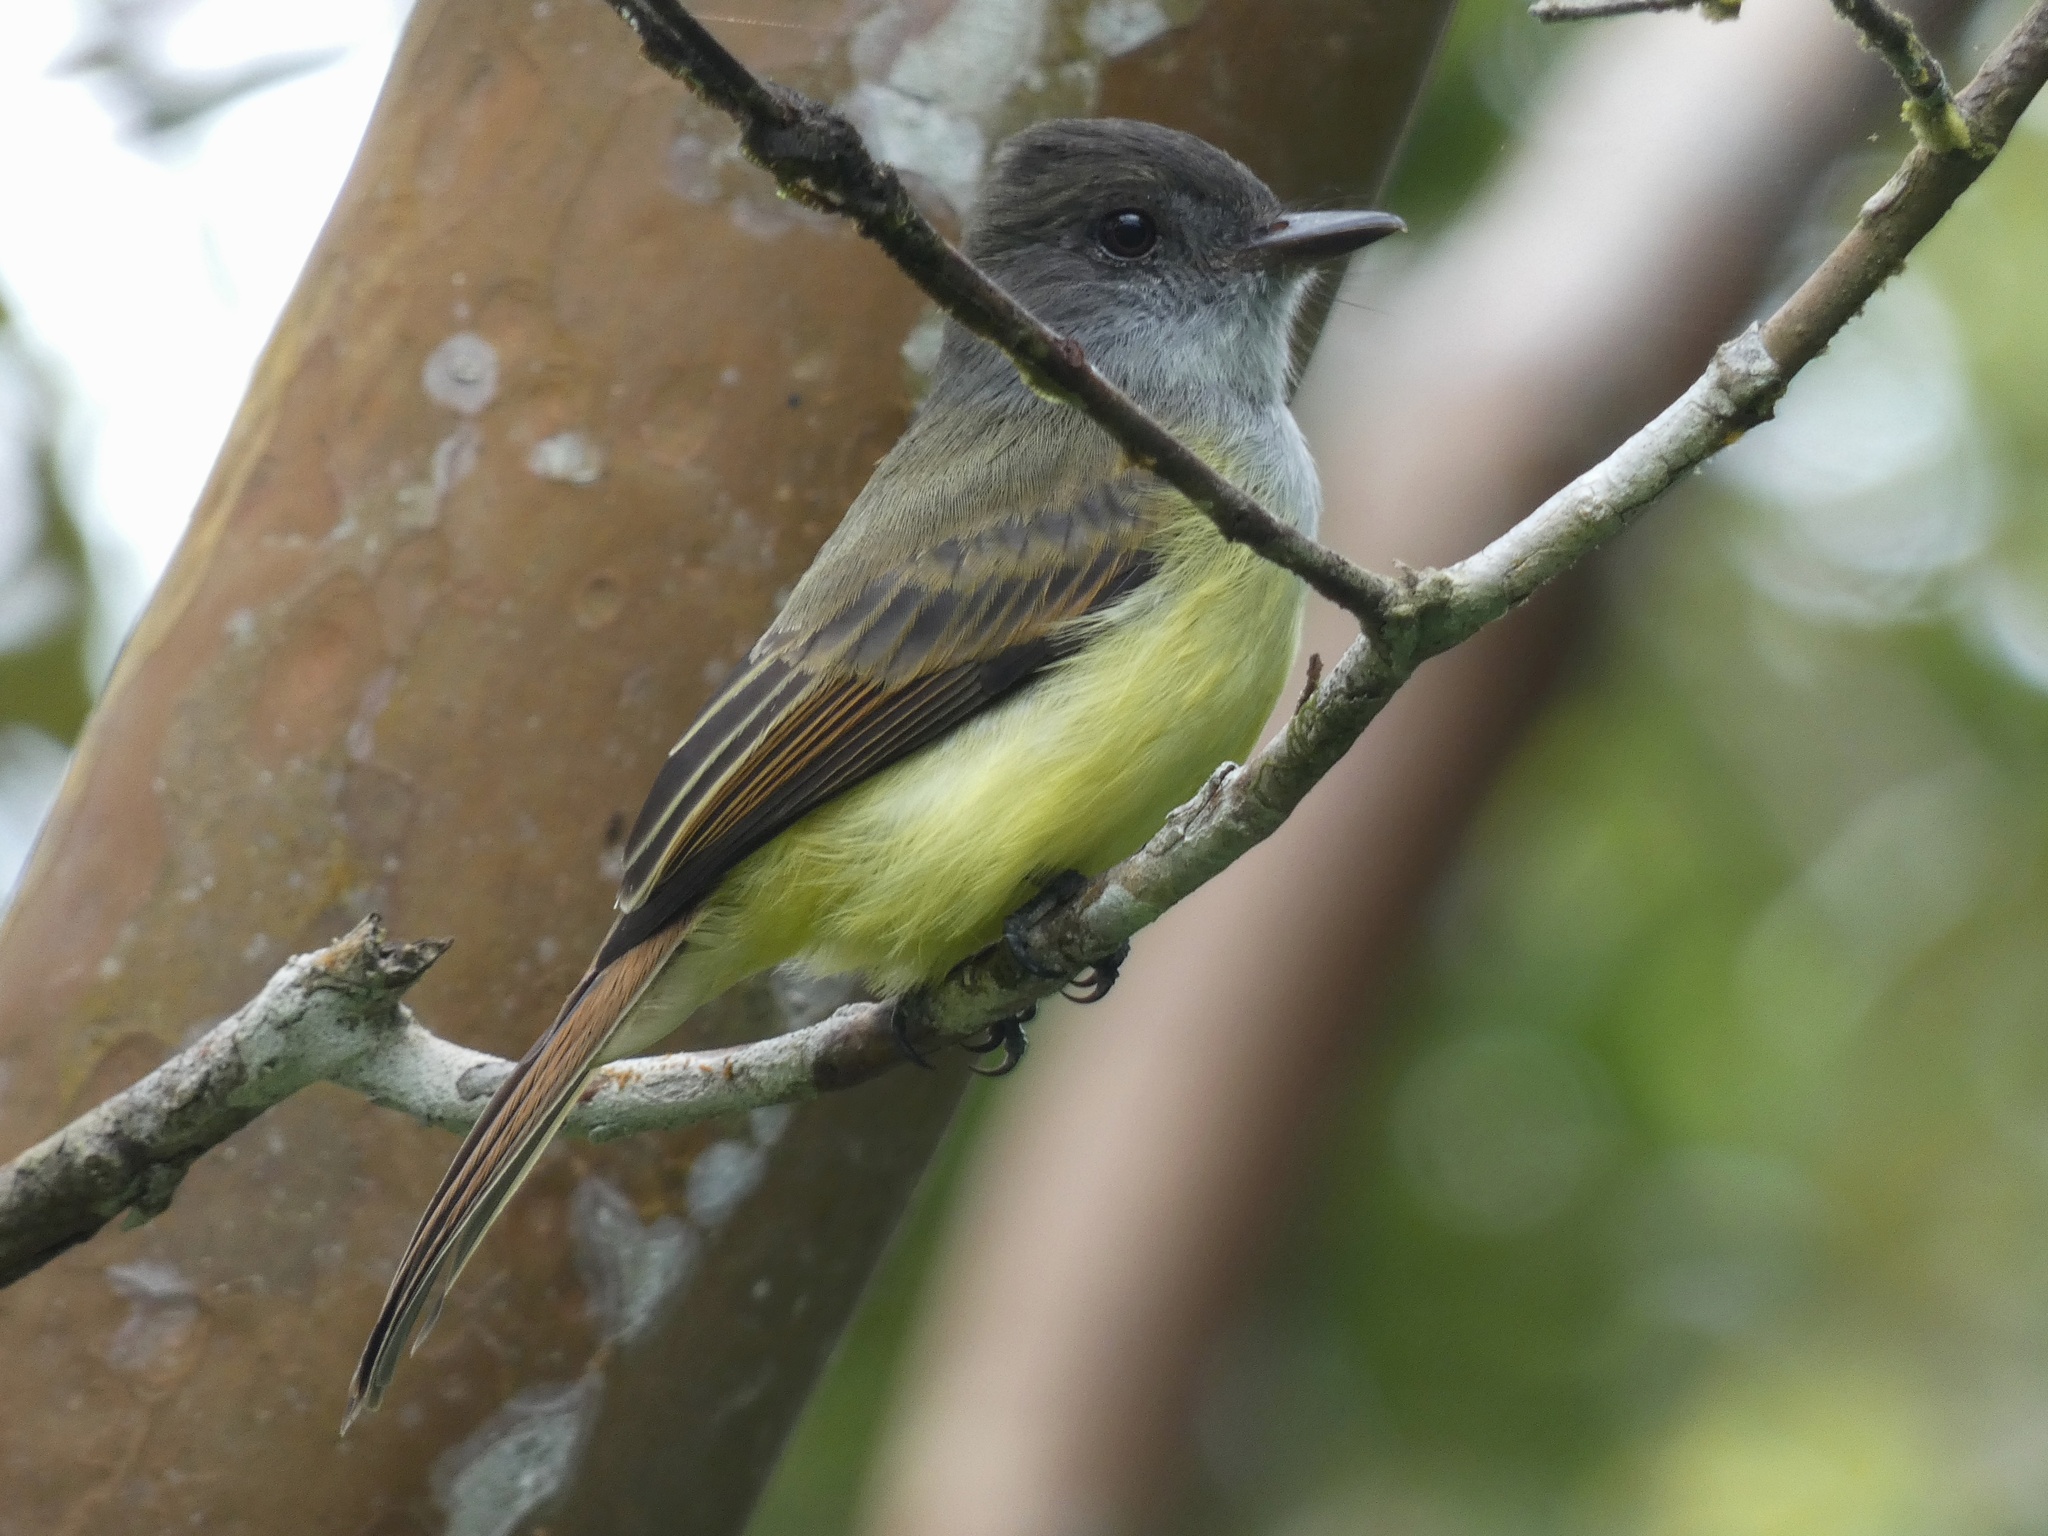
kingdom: Animalia
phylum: Chordata
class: Aves
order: Passeriformes
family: Tyrannidae
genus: Myiarchus
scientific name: Myiarchus tuberculifer
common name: Dusky-capped flycatcher
